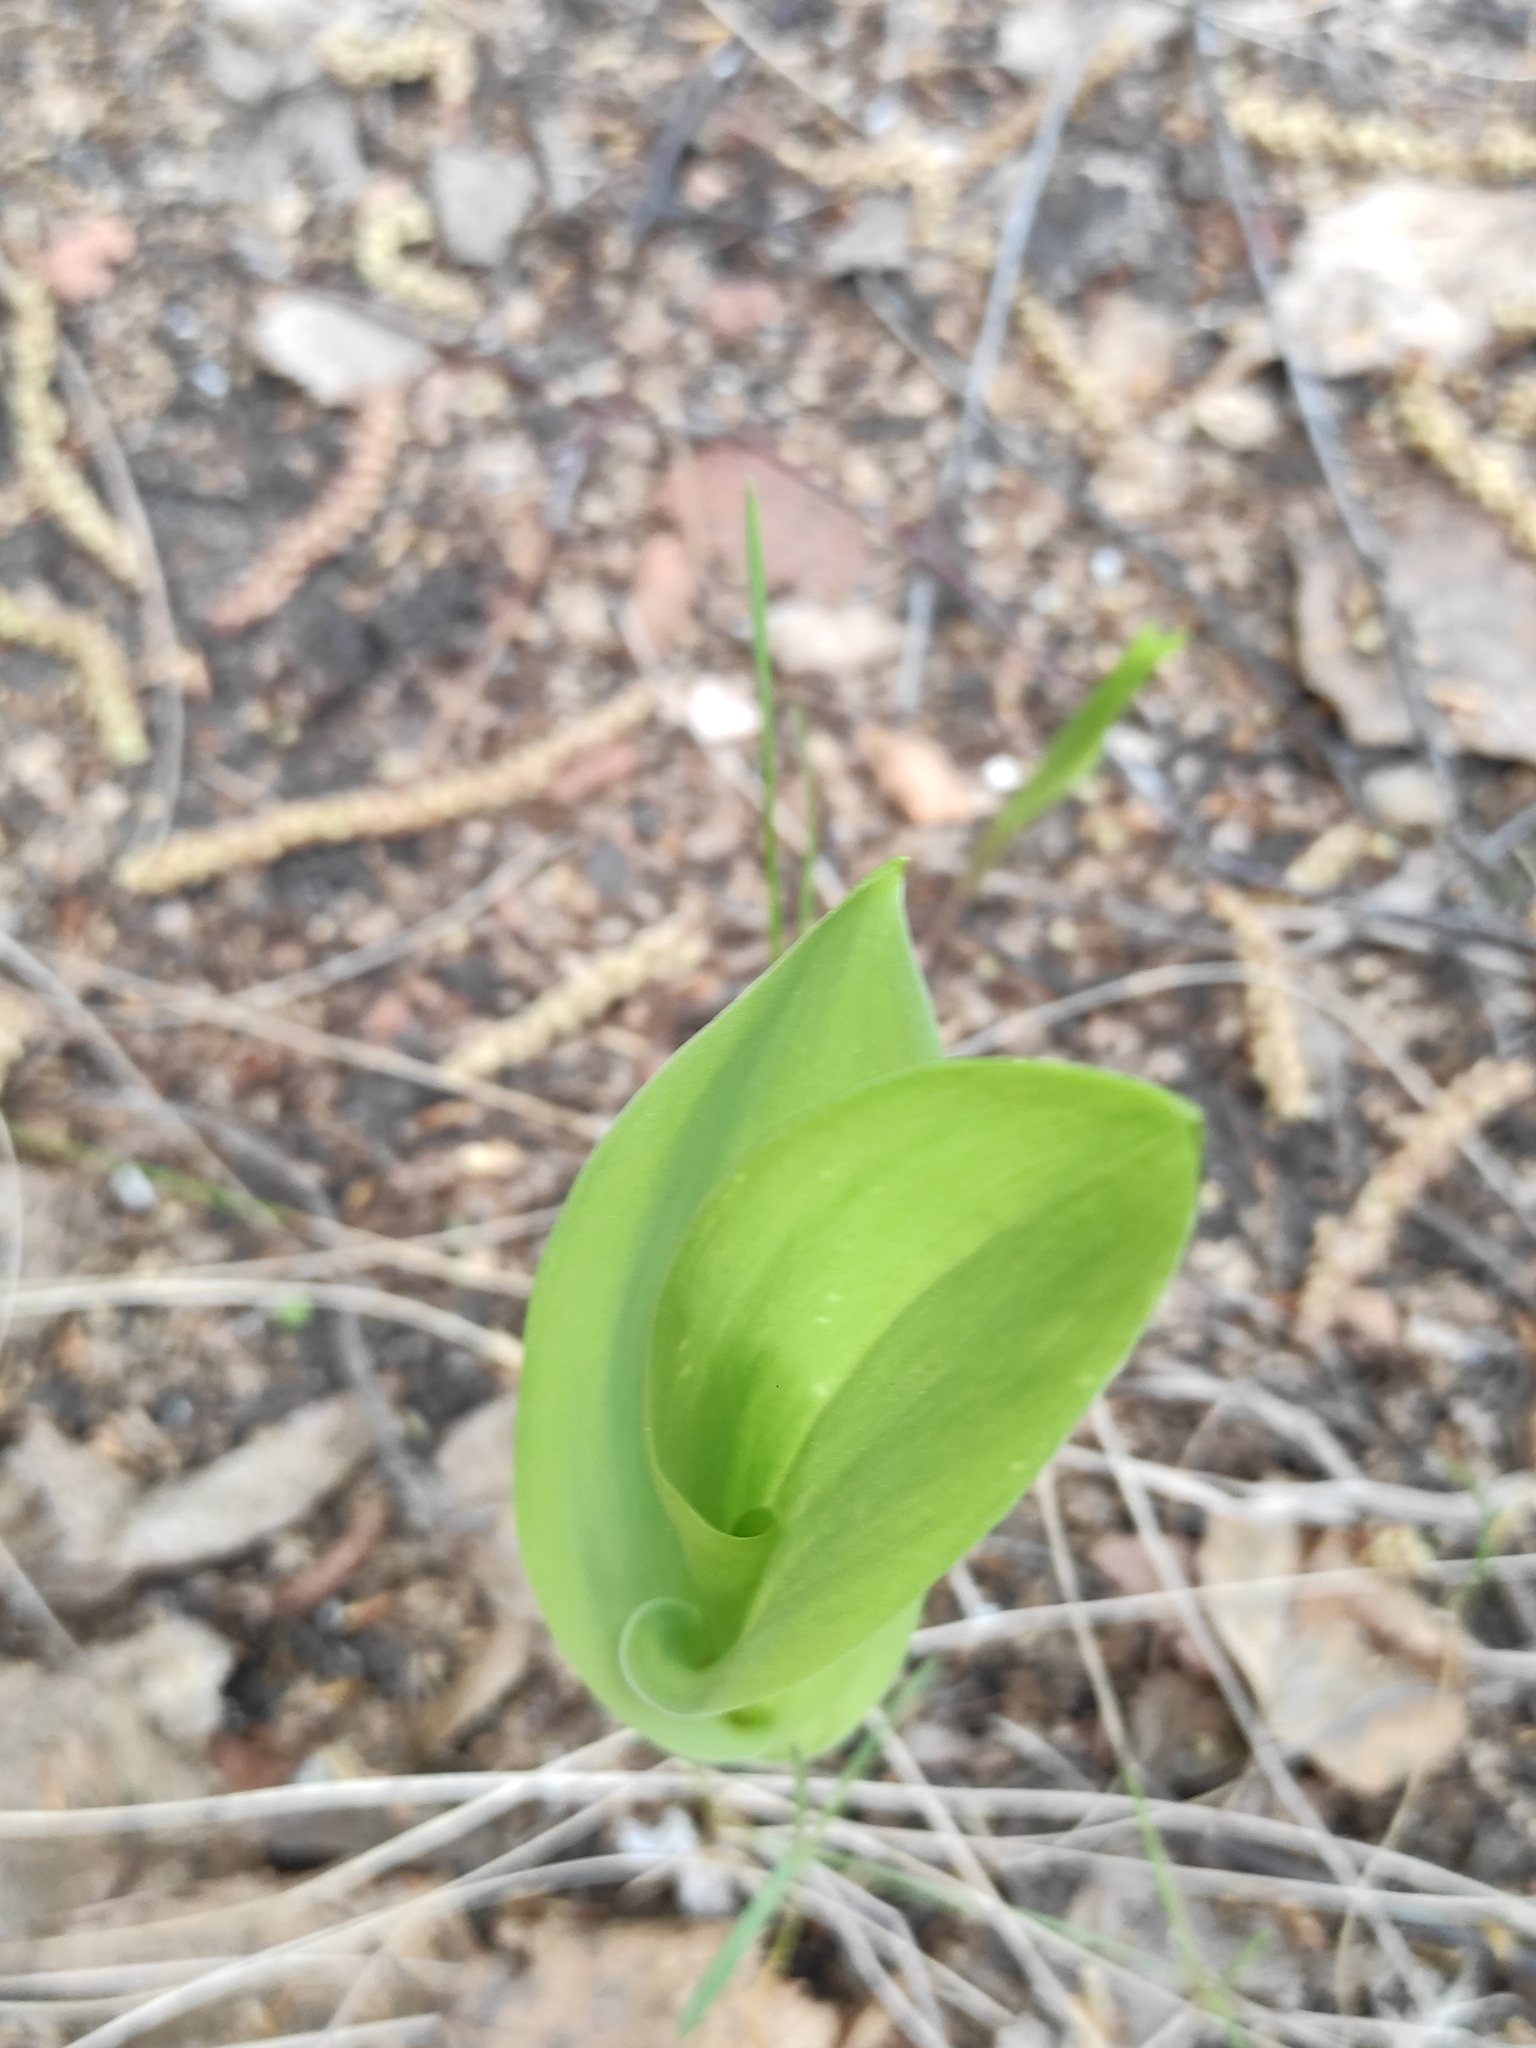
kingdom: Plantae
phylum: Tracheophyta
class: Liliopsida
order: Asparagales
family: Asparagaceae
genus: Convallaria
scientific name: Convallaria majalis
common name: Lily-of-the-valley
